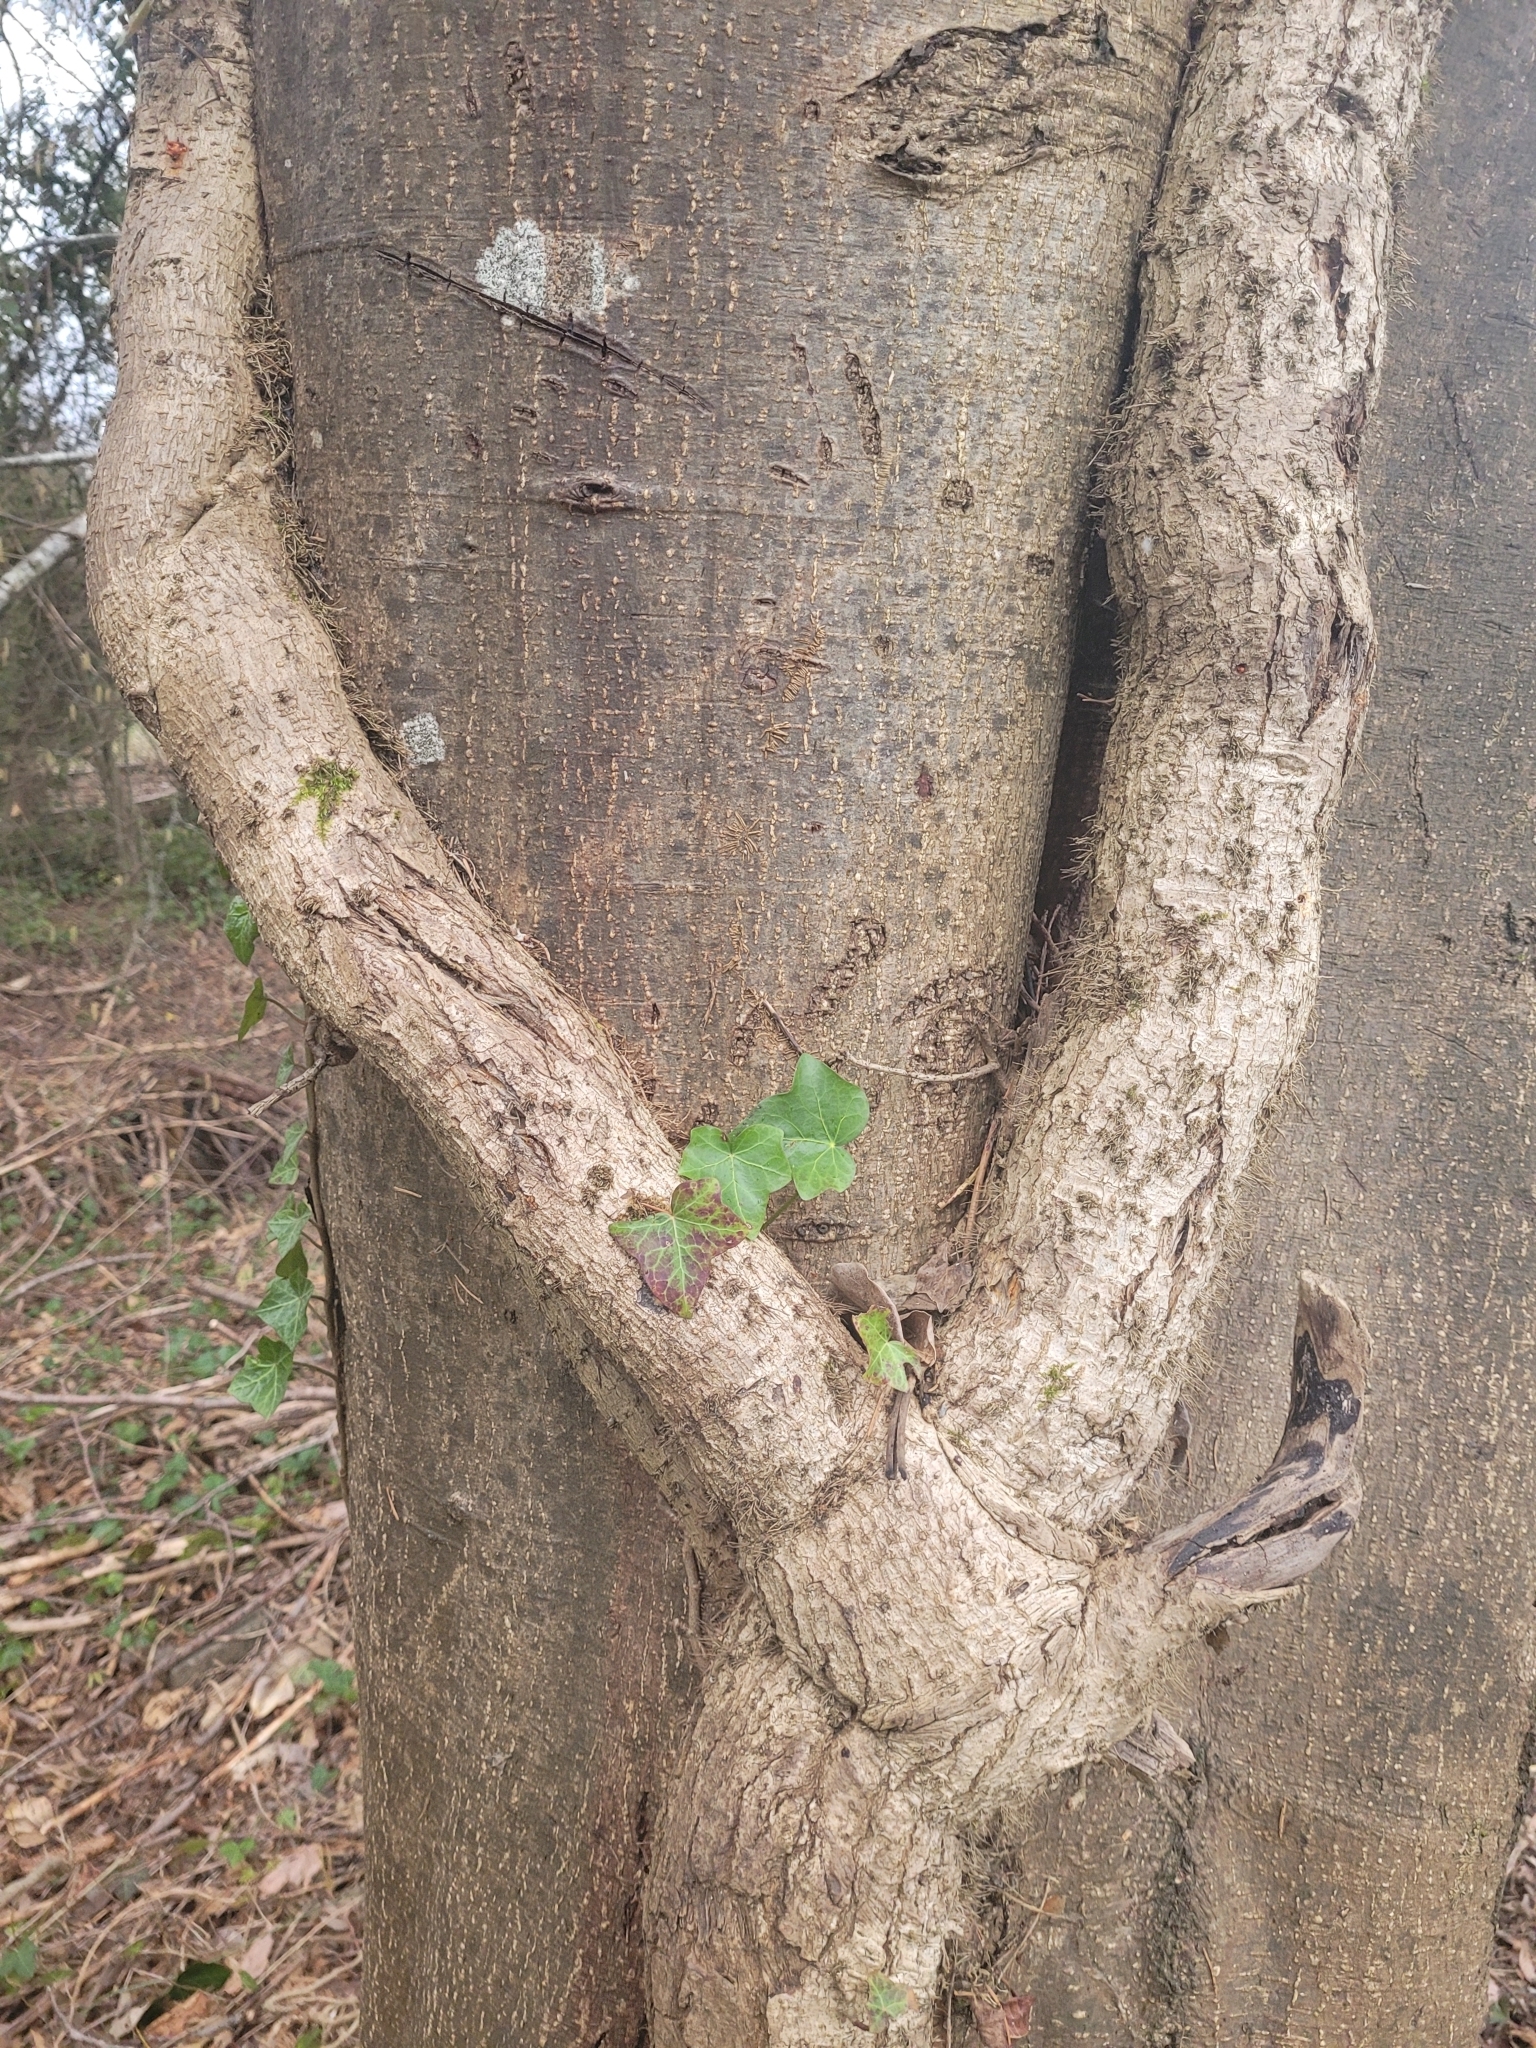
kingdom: Plantae
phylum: Tracheophyta
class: Magnoliopsida
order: Apiales
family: Araliaceae
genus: Hedera
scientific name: Hedera helix
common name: Ivy
